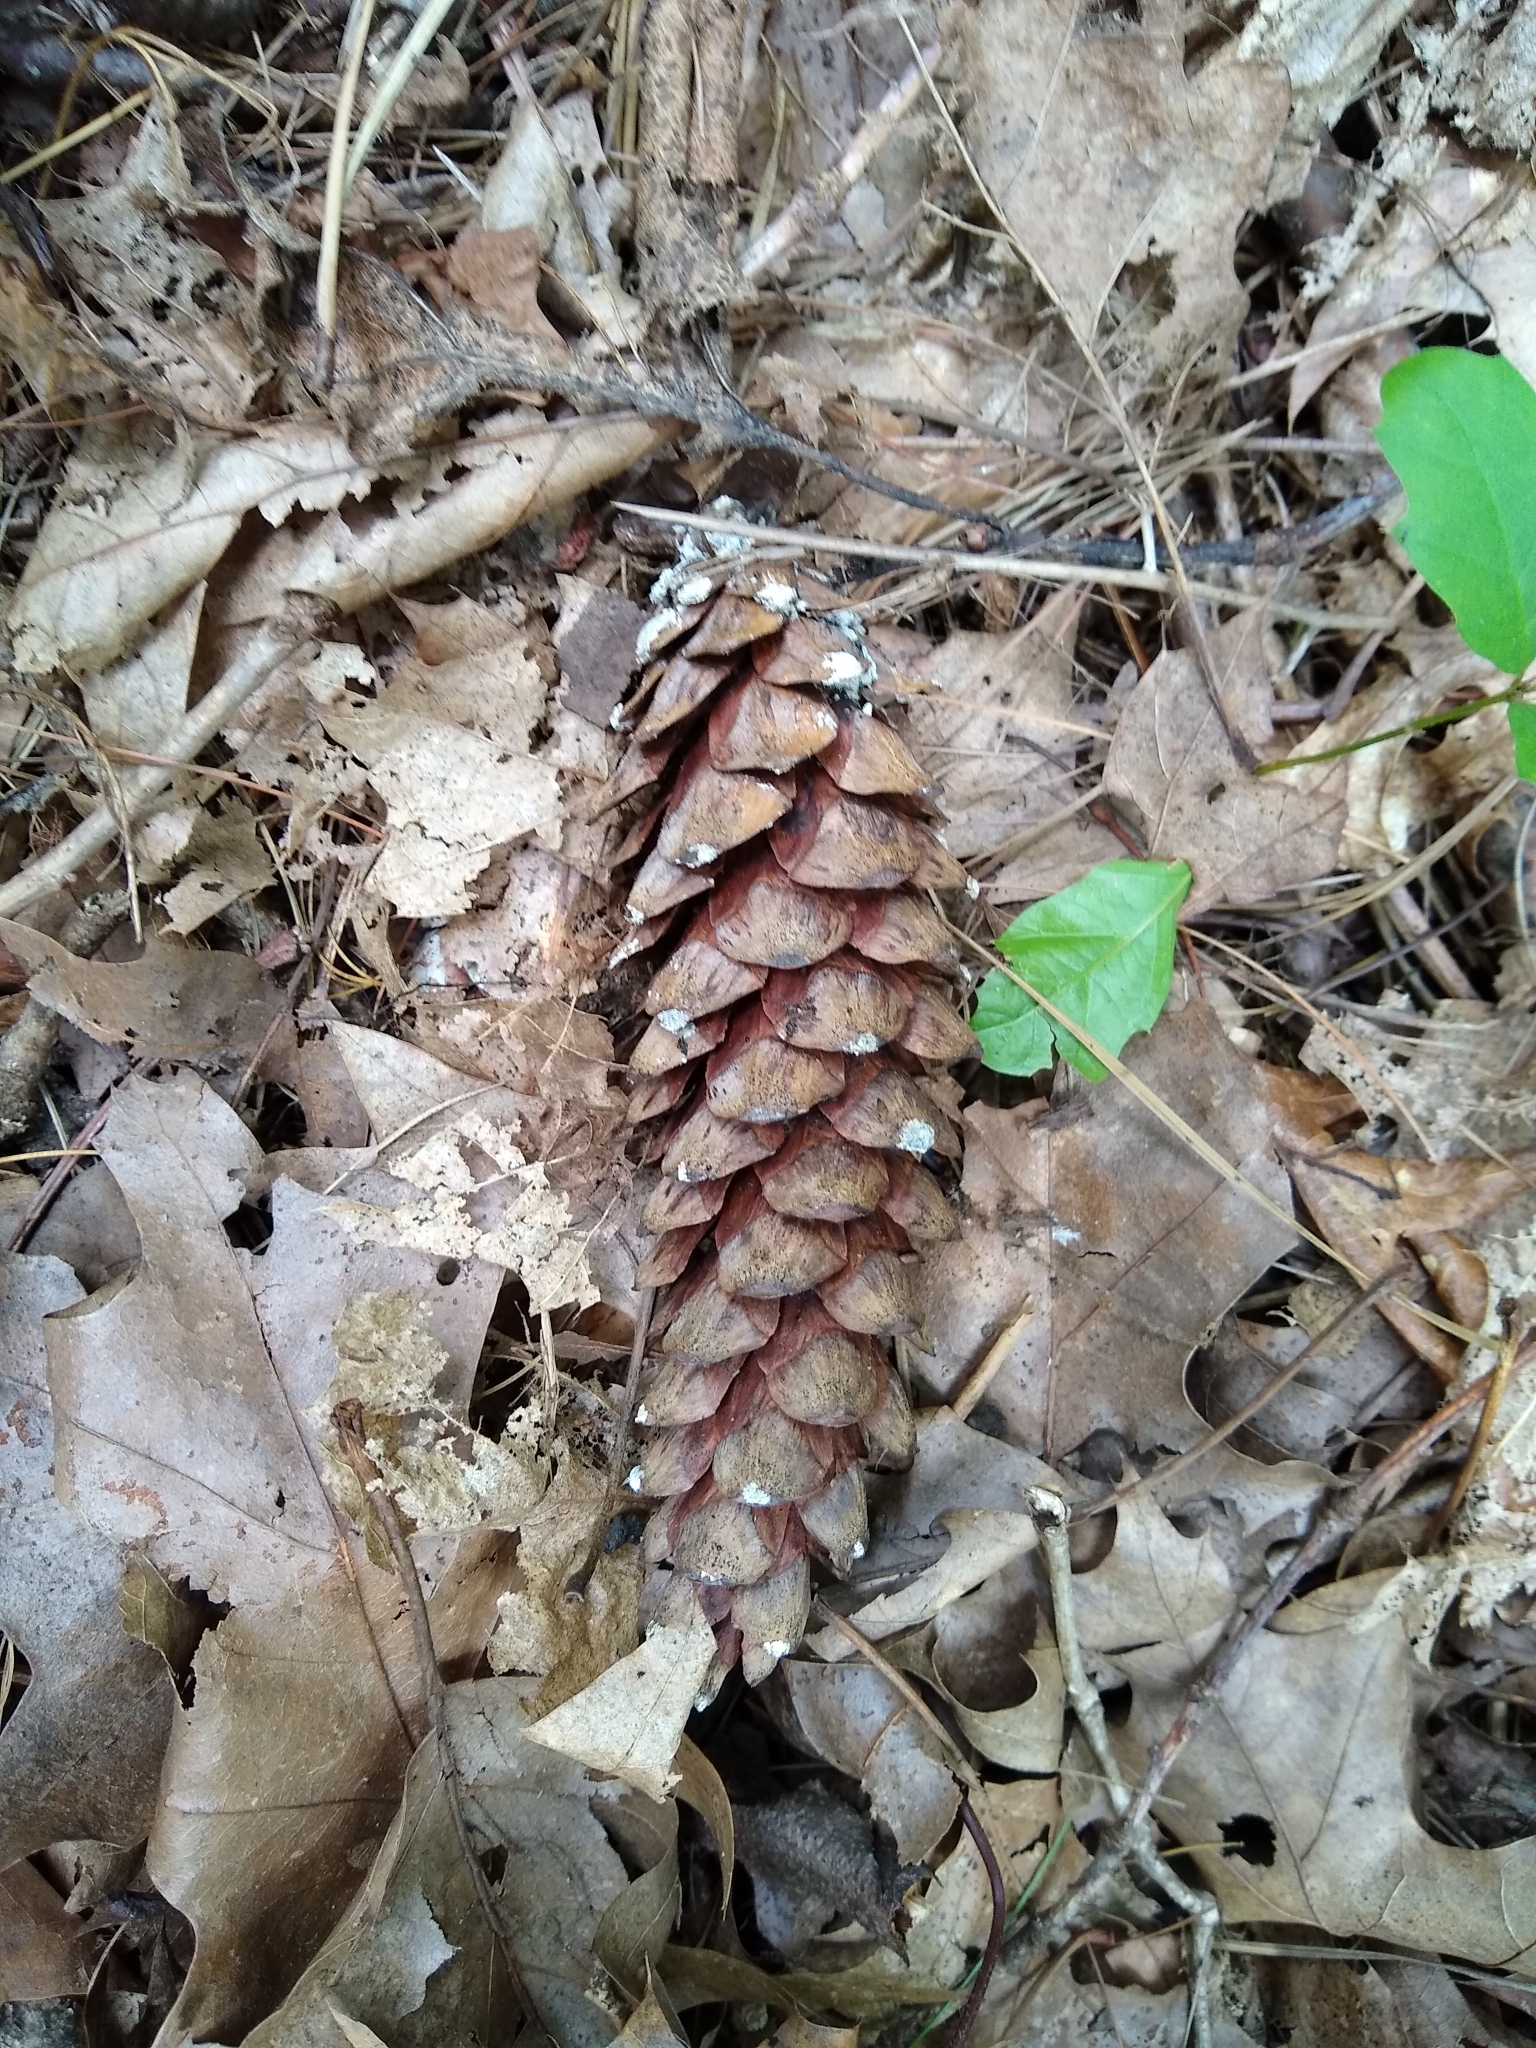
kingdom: Plantae
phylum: Tracheophyta
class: Pinopsida
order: Pinales
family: Pinaceae
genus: Pinus
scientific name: Pinus strobus
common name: Weymouth pine
